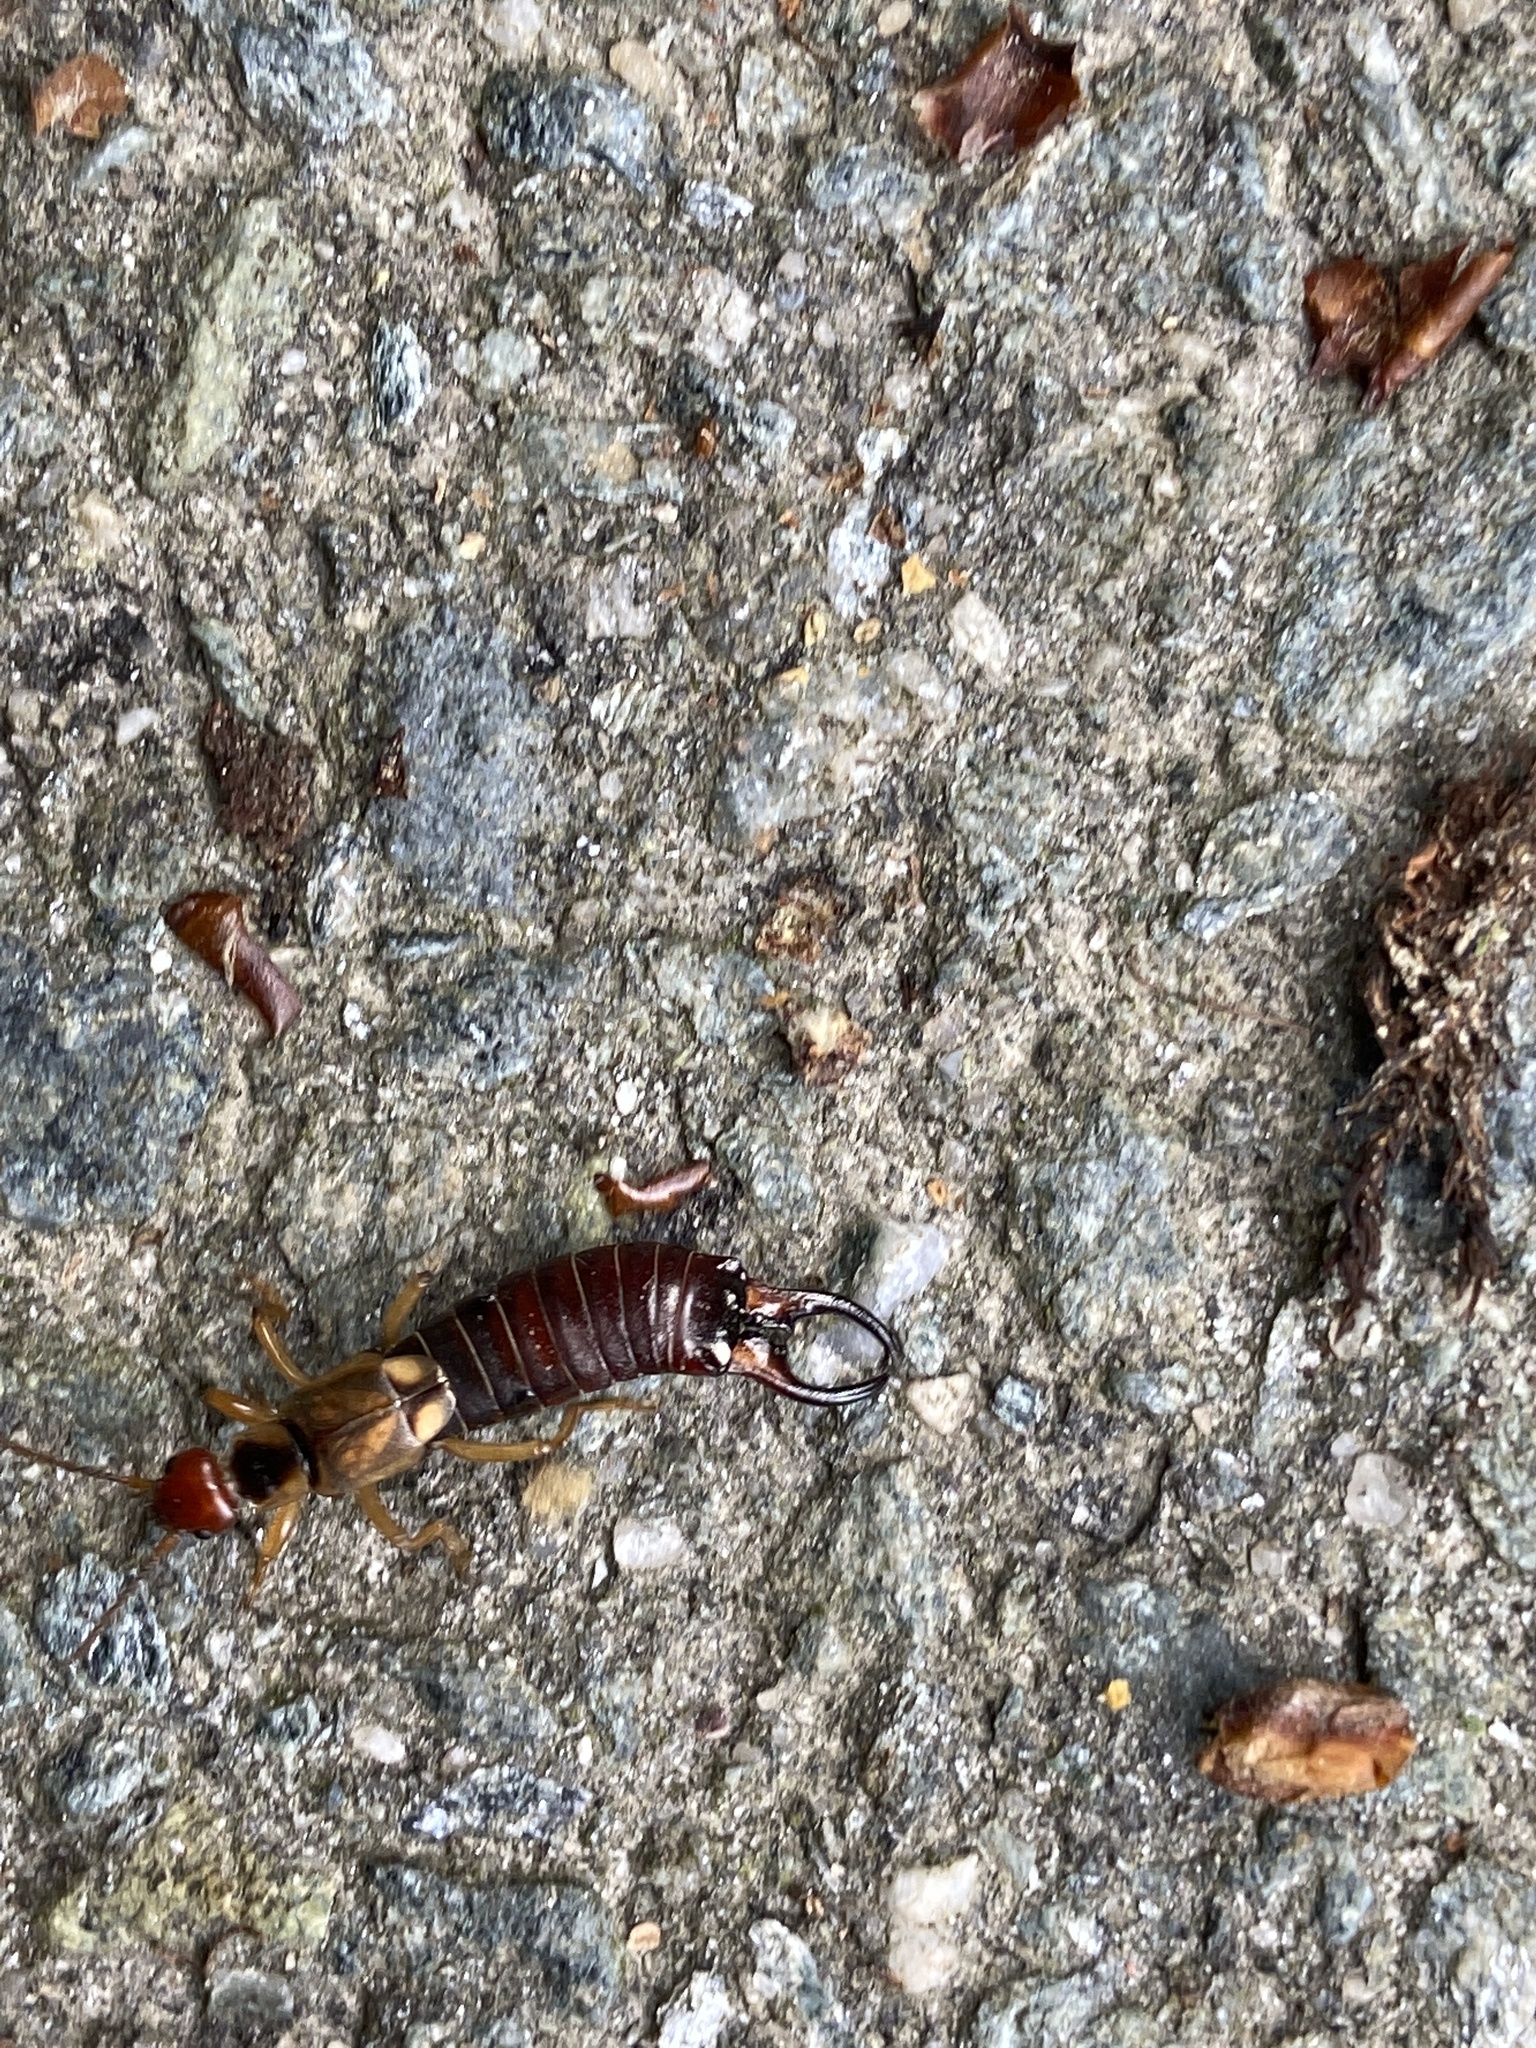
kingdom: Animalia
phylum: Arthropoda
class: Insecta
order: Dermaptera
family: Forficulidae
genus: Forficula
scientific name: Forficula
